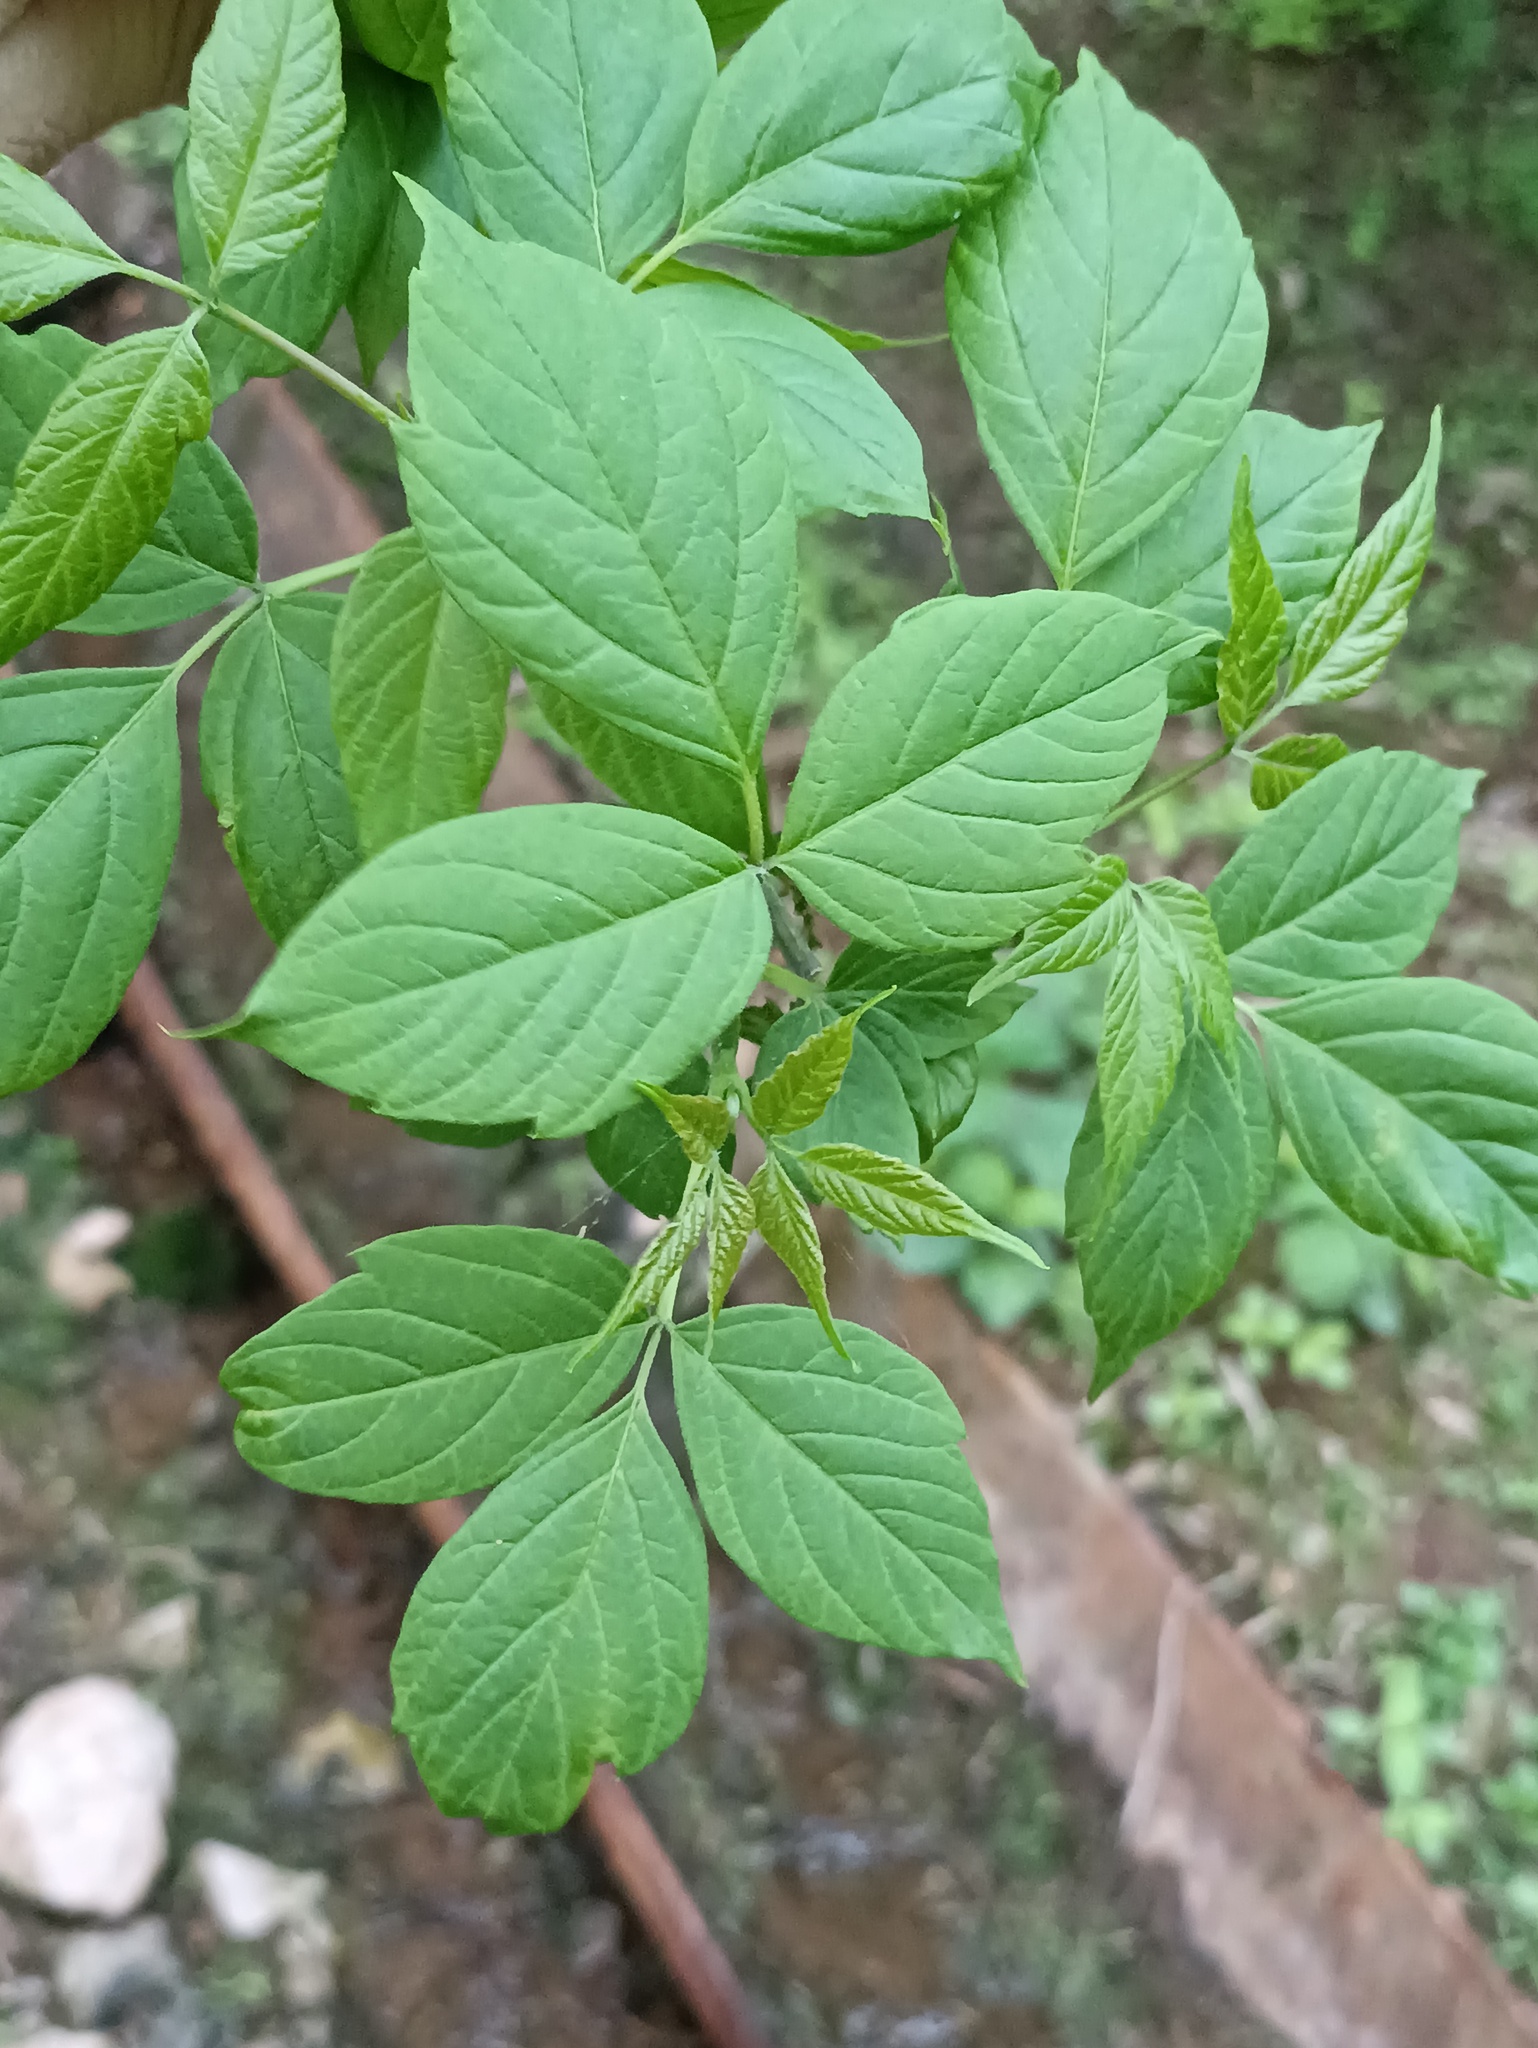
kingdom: Plantae
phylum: Tracheophyta
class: Magnoliopsida
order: Sapindales
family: Sapindaceae
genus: Acer
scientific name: Acer negundo
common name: Ashleaf maple
